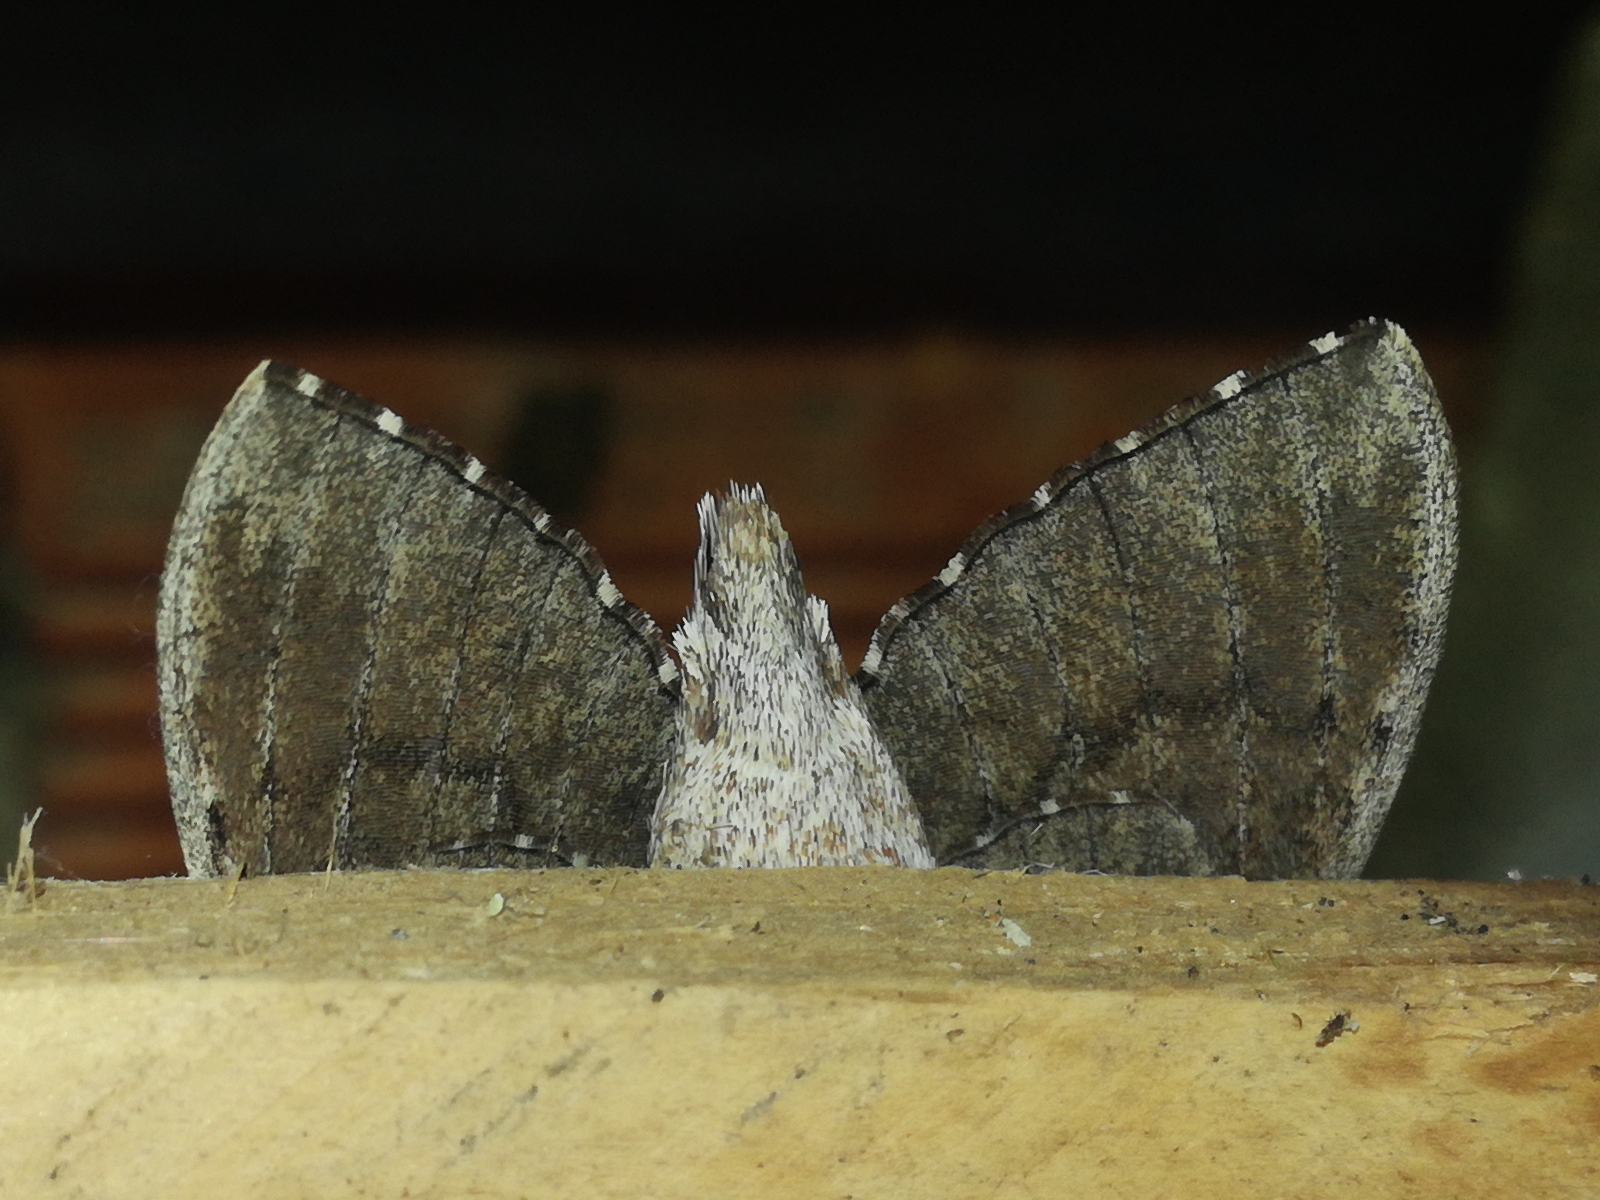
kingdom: Animalia
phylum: Arthropoda
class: Insecta
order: Lepidoptera
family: Sphingidae
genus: Agrius
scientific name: Agrius convolvuli
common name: Convolvulus hawkmoth
